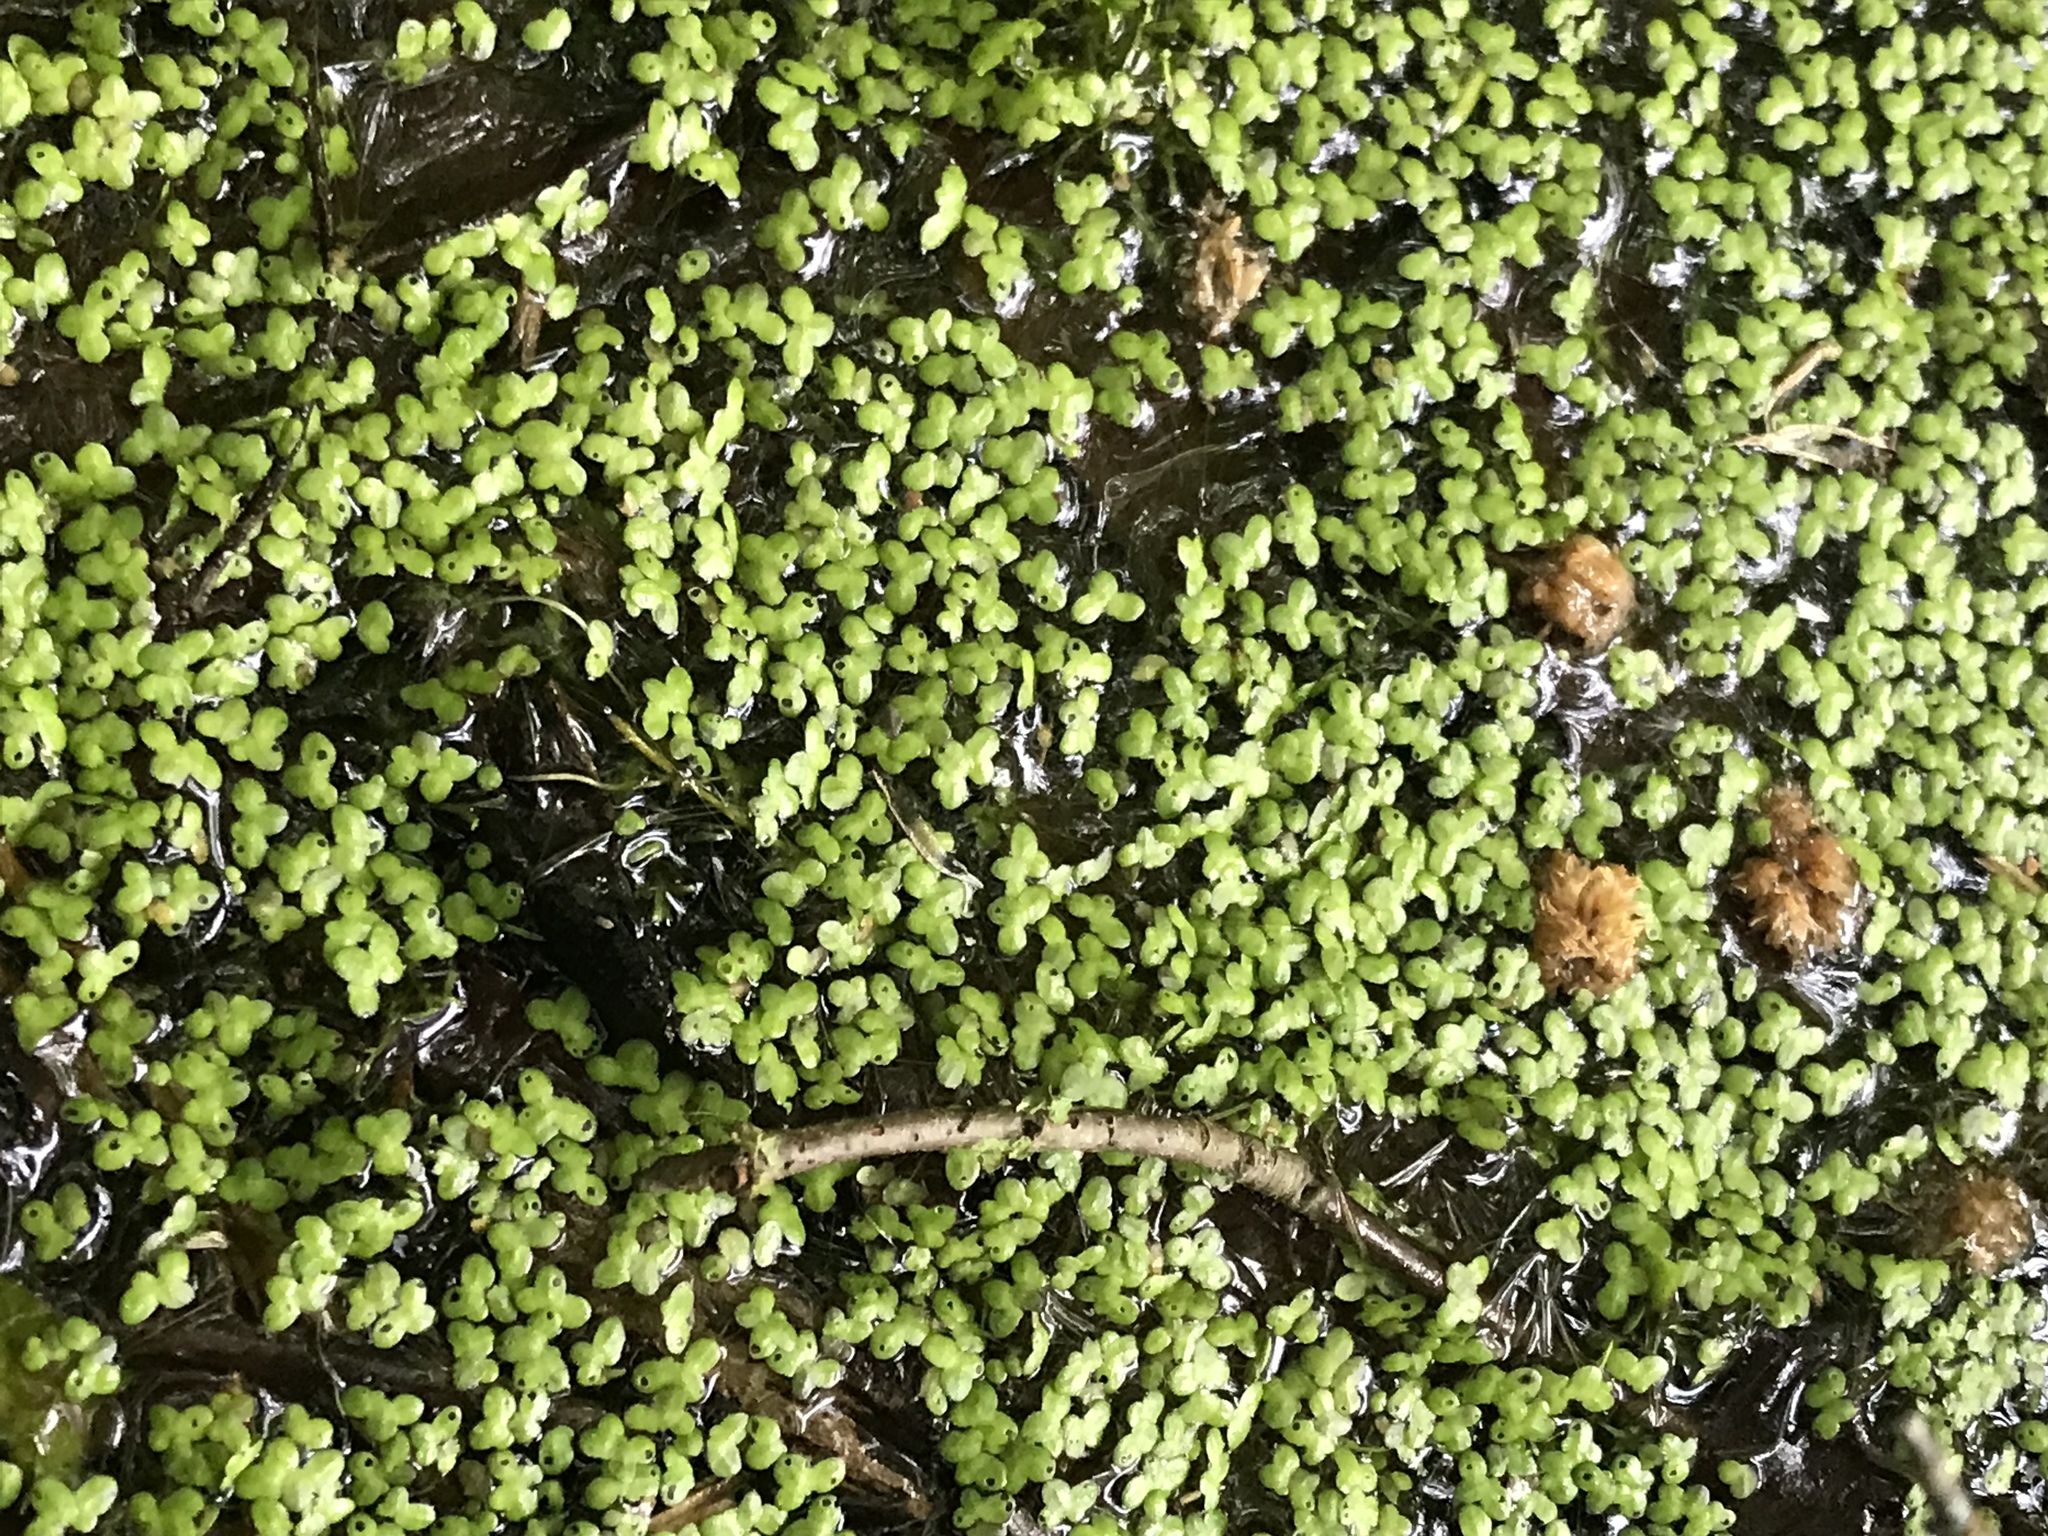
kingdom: Plantae
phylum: Tracheophyta
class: Liliopsida
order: Alismatales
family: Araceae
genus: Lemna
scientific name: Lemna minor
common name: Common duckweed
